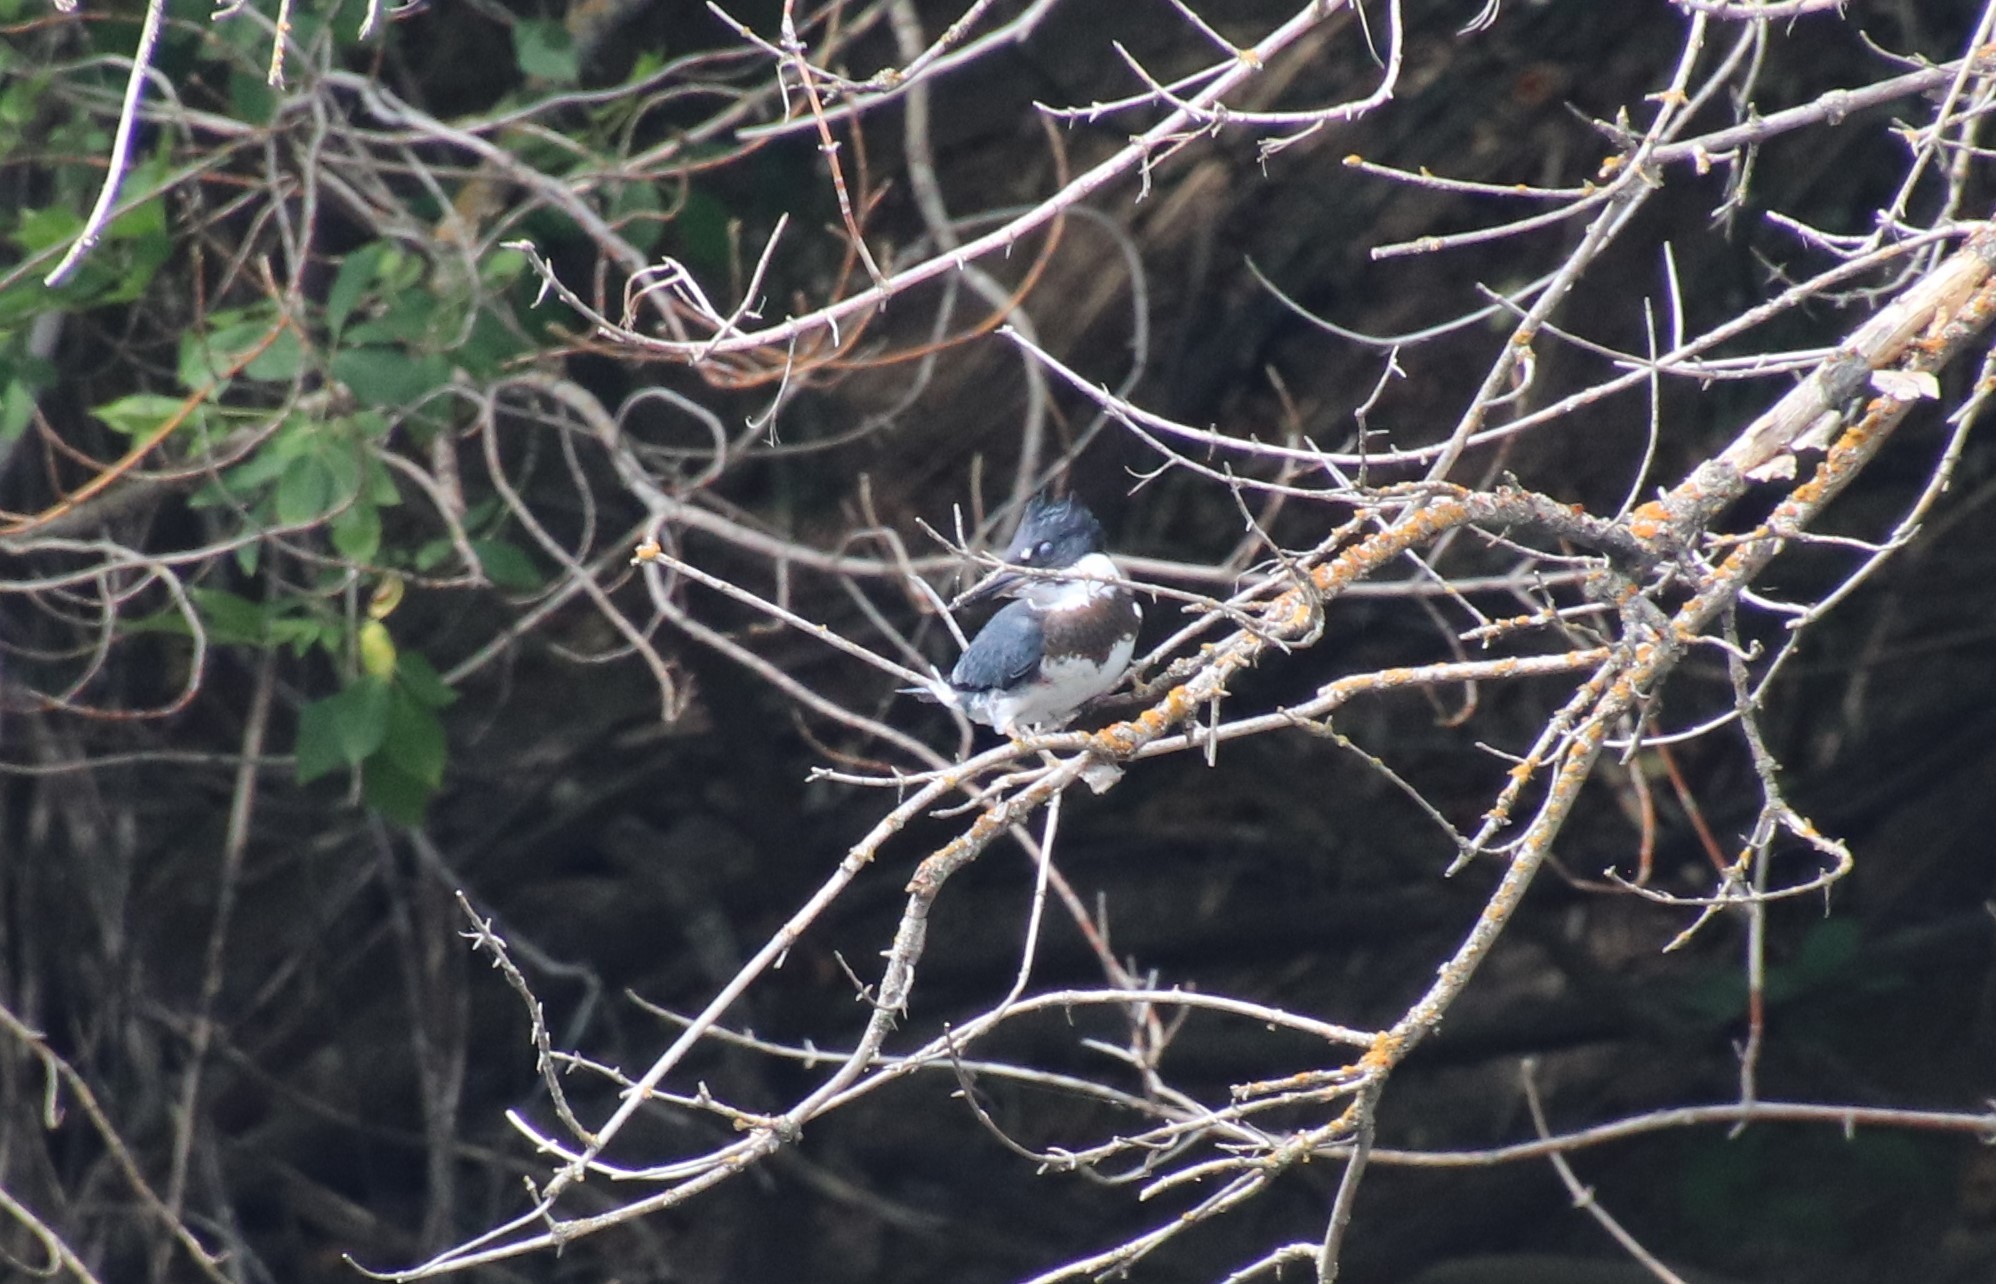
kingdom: Animalia
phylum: Chordata
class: Aves
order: Coraciiformes
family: Alcedinidae
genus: Megaceryle
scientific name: Megaceryle alcyon
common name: Belted kingfisher
